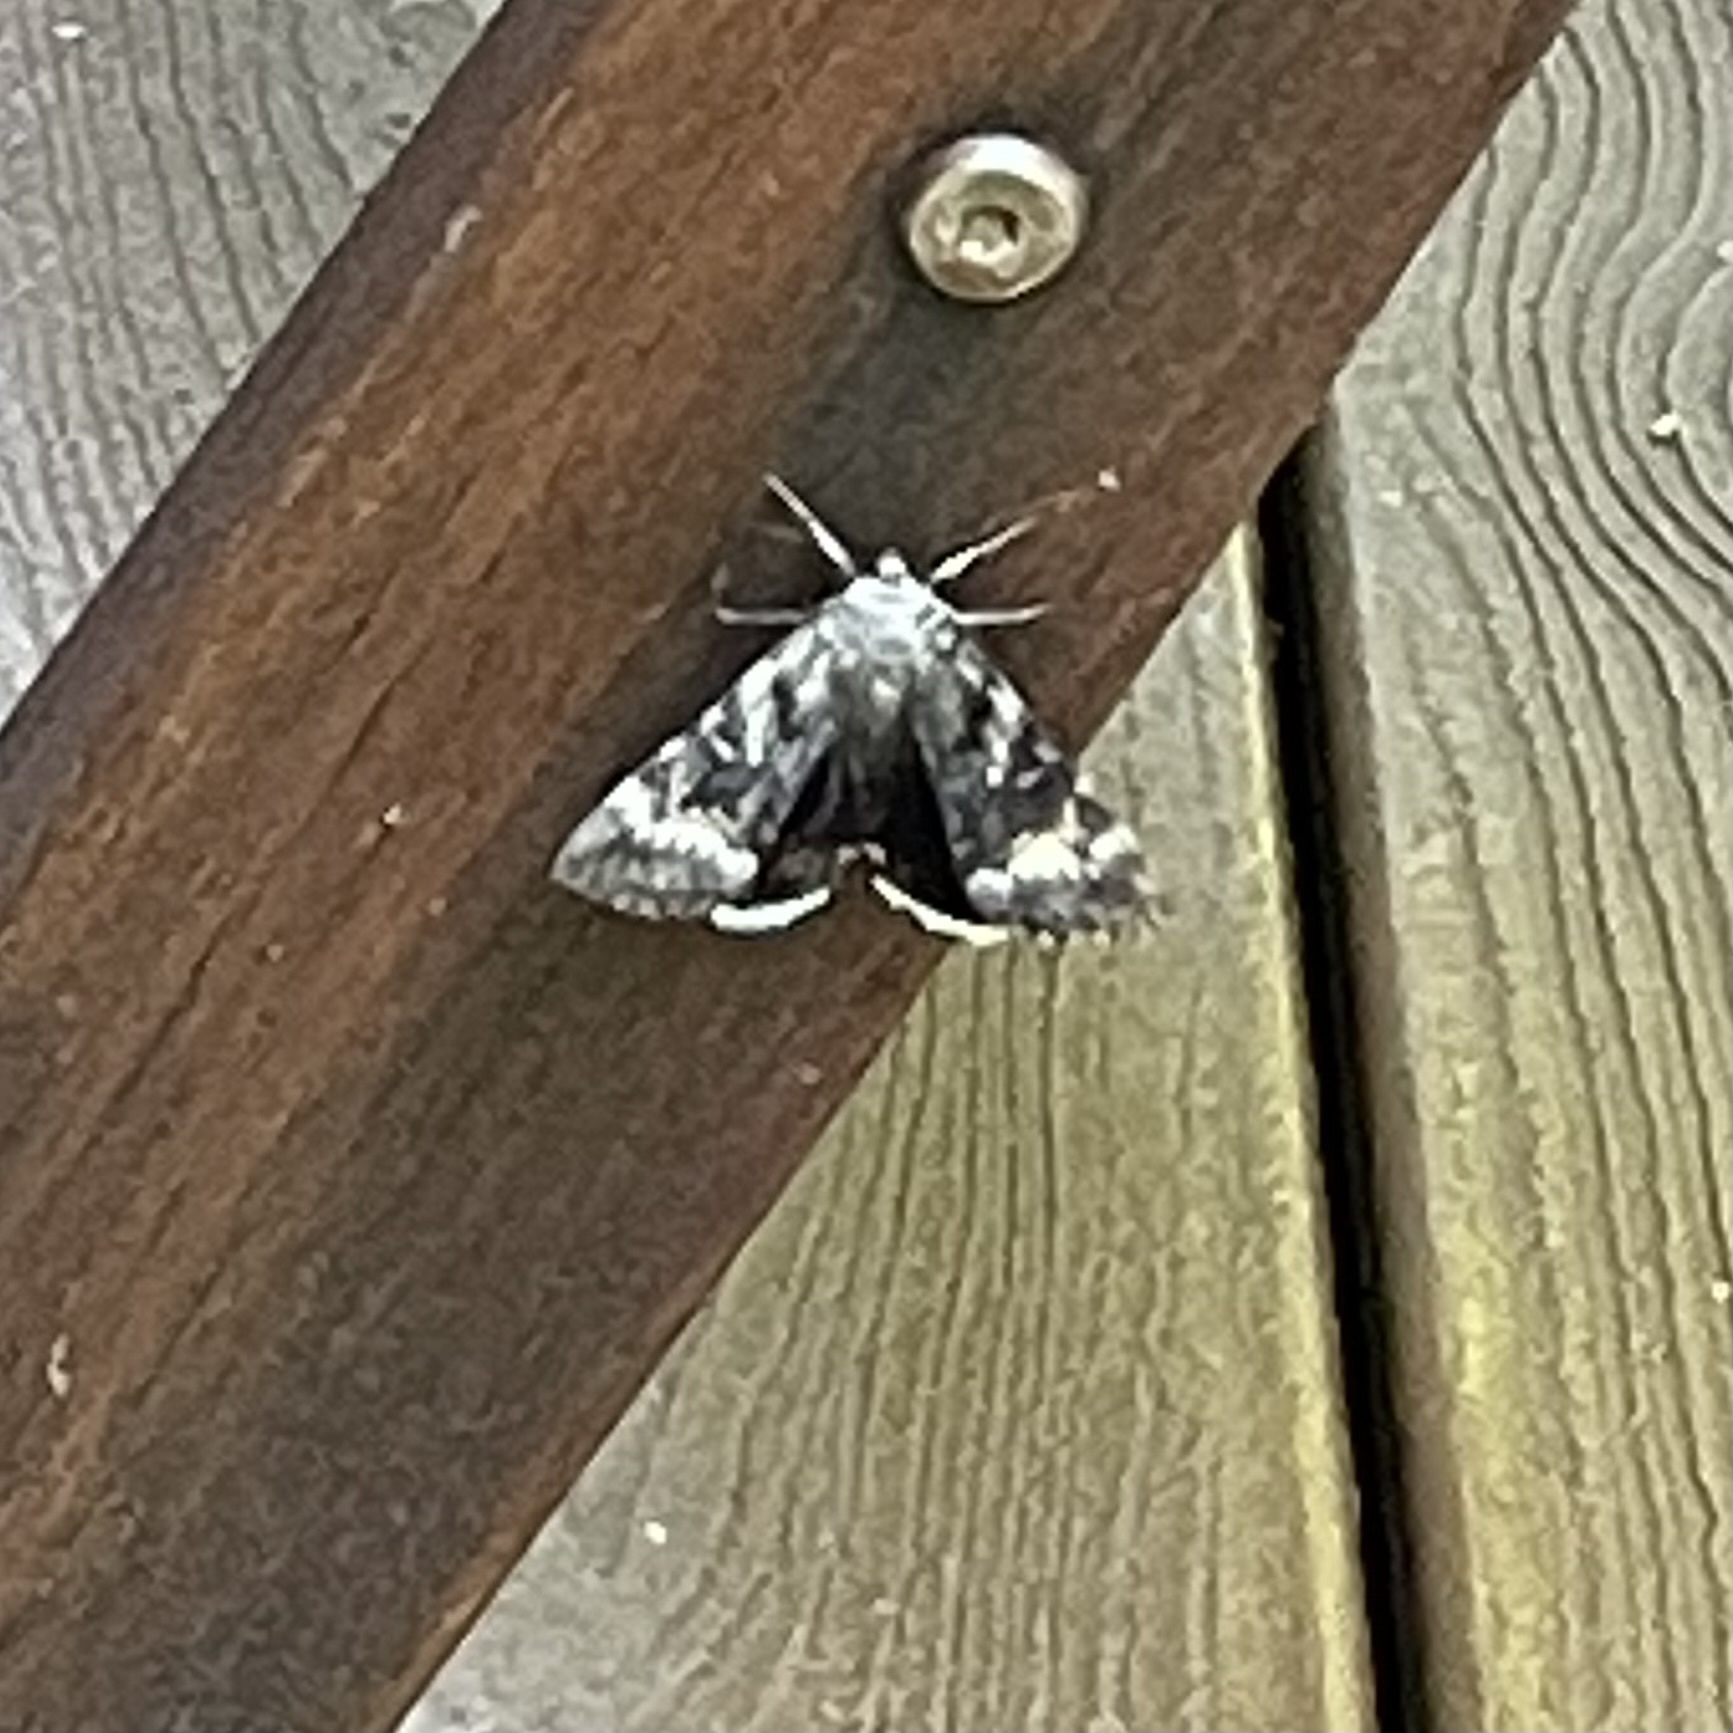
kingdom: Animalia
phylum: Arthropoda
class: Insecta
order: Lepidoptera
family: Erebidae
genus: Catocala
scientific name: Catocala epione
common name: Epione underwing
